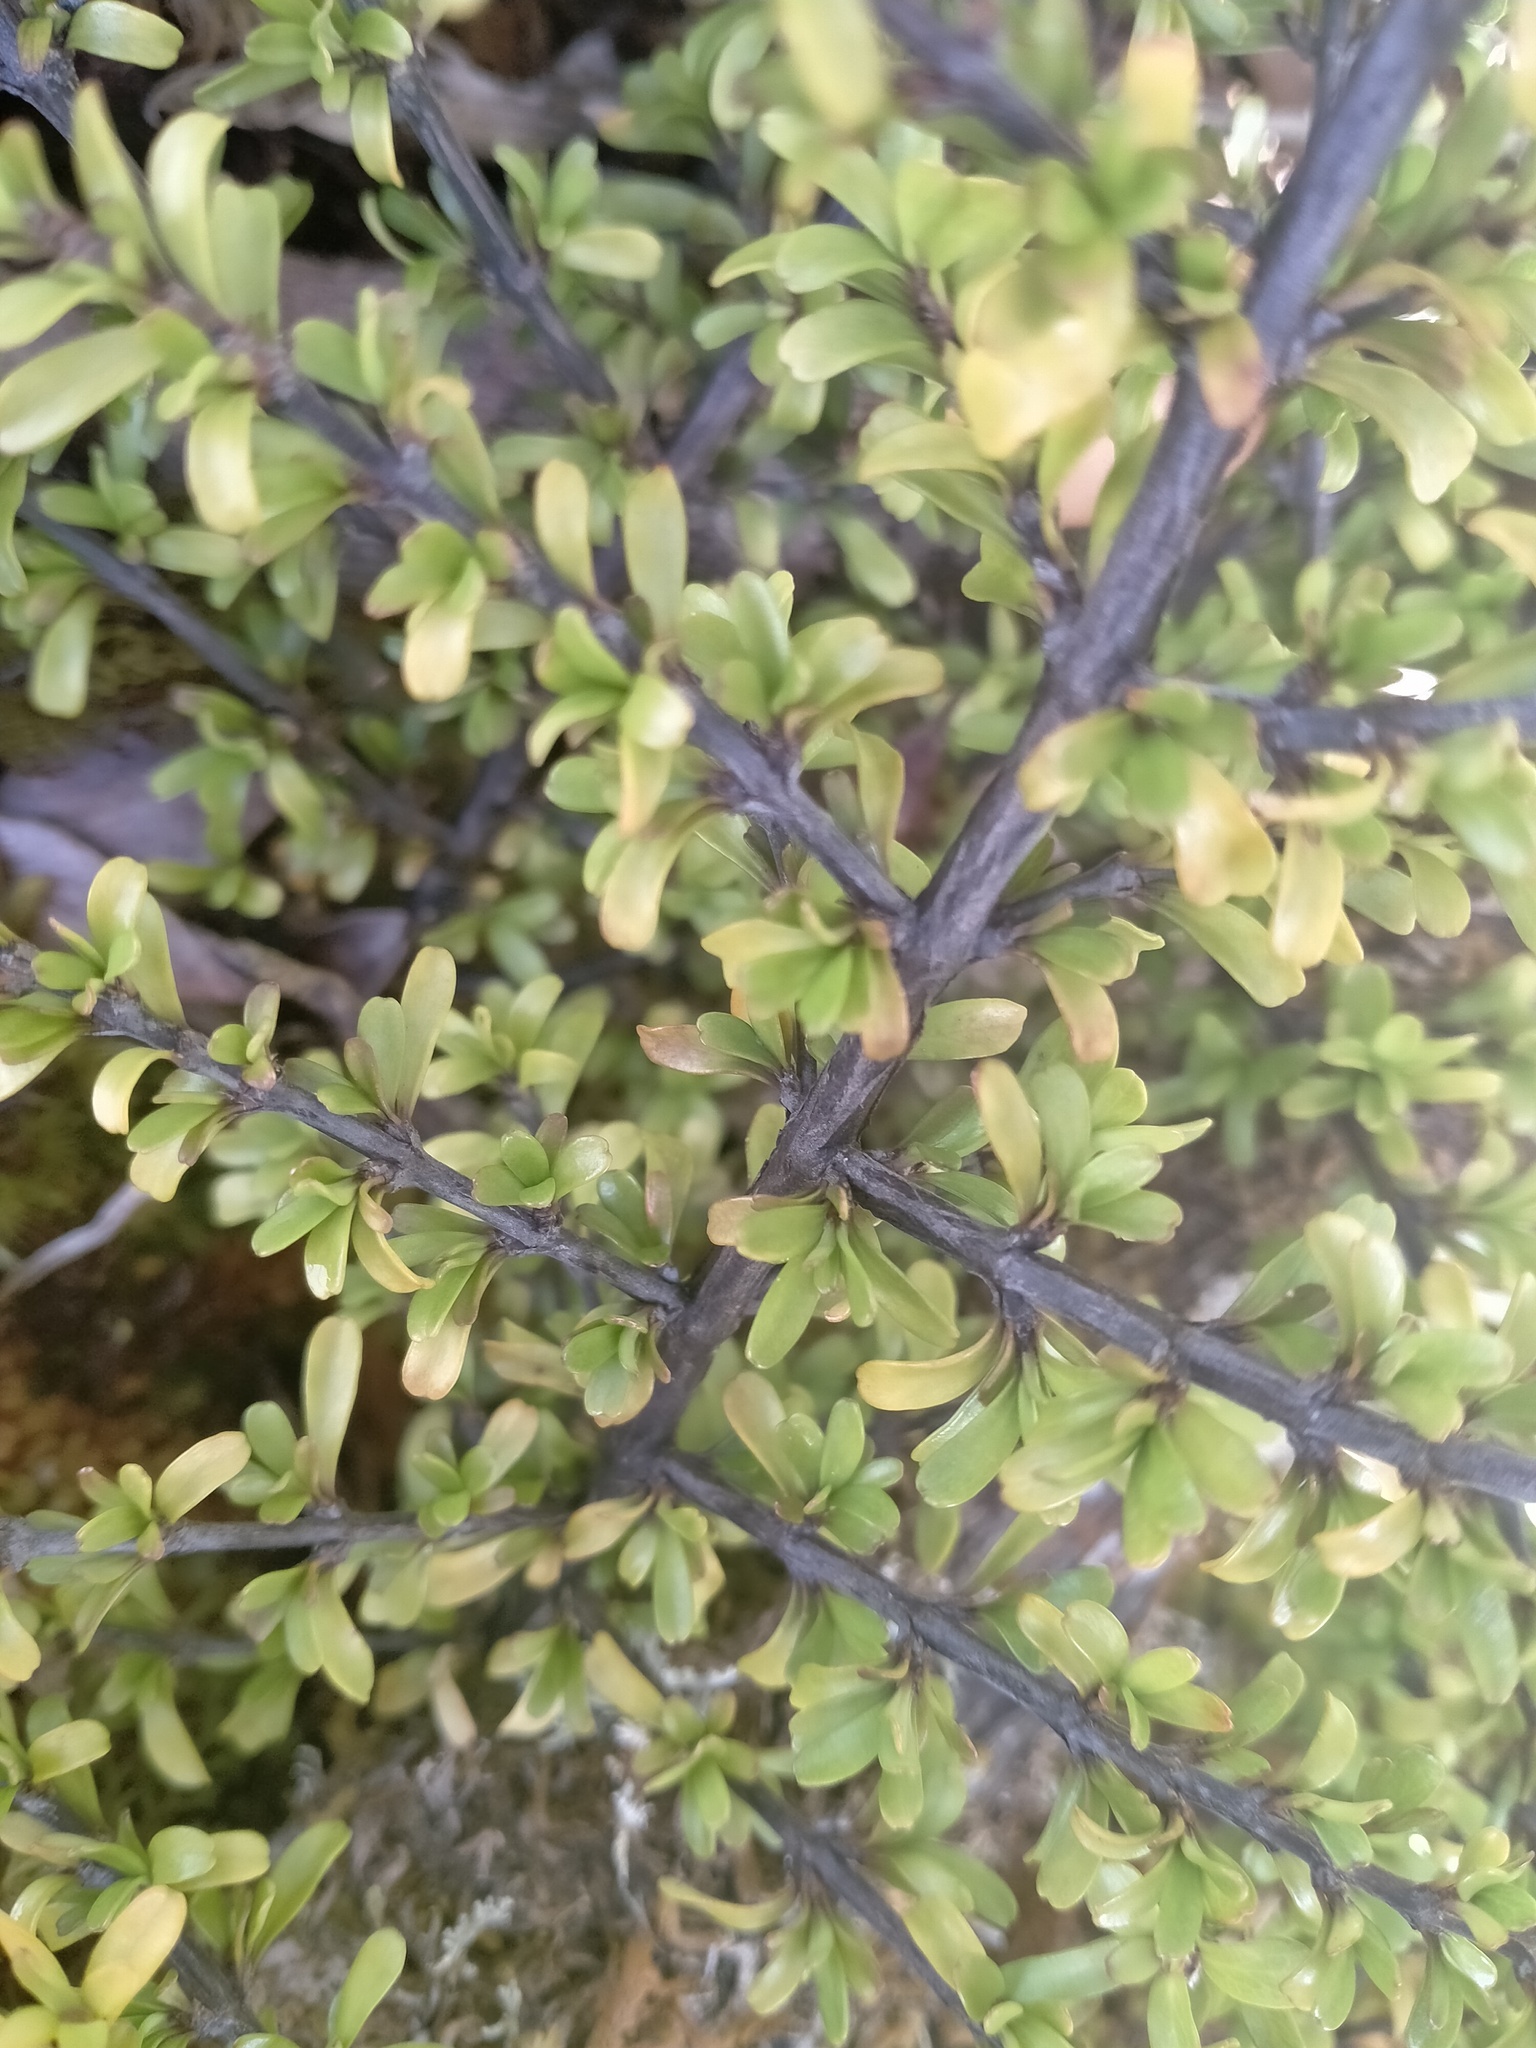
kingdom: Plantae
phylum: Tracheophyta
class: Magnoliopsida
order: Gentianales
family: Rubiaceae
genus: Coprosma
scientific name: Coprosma cuneata
